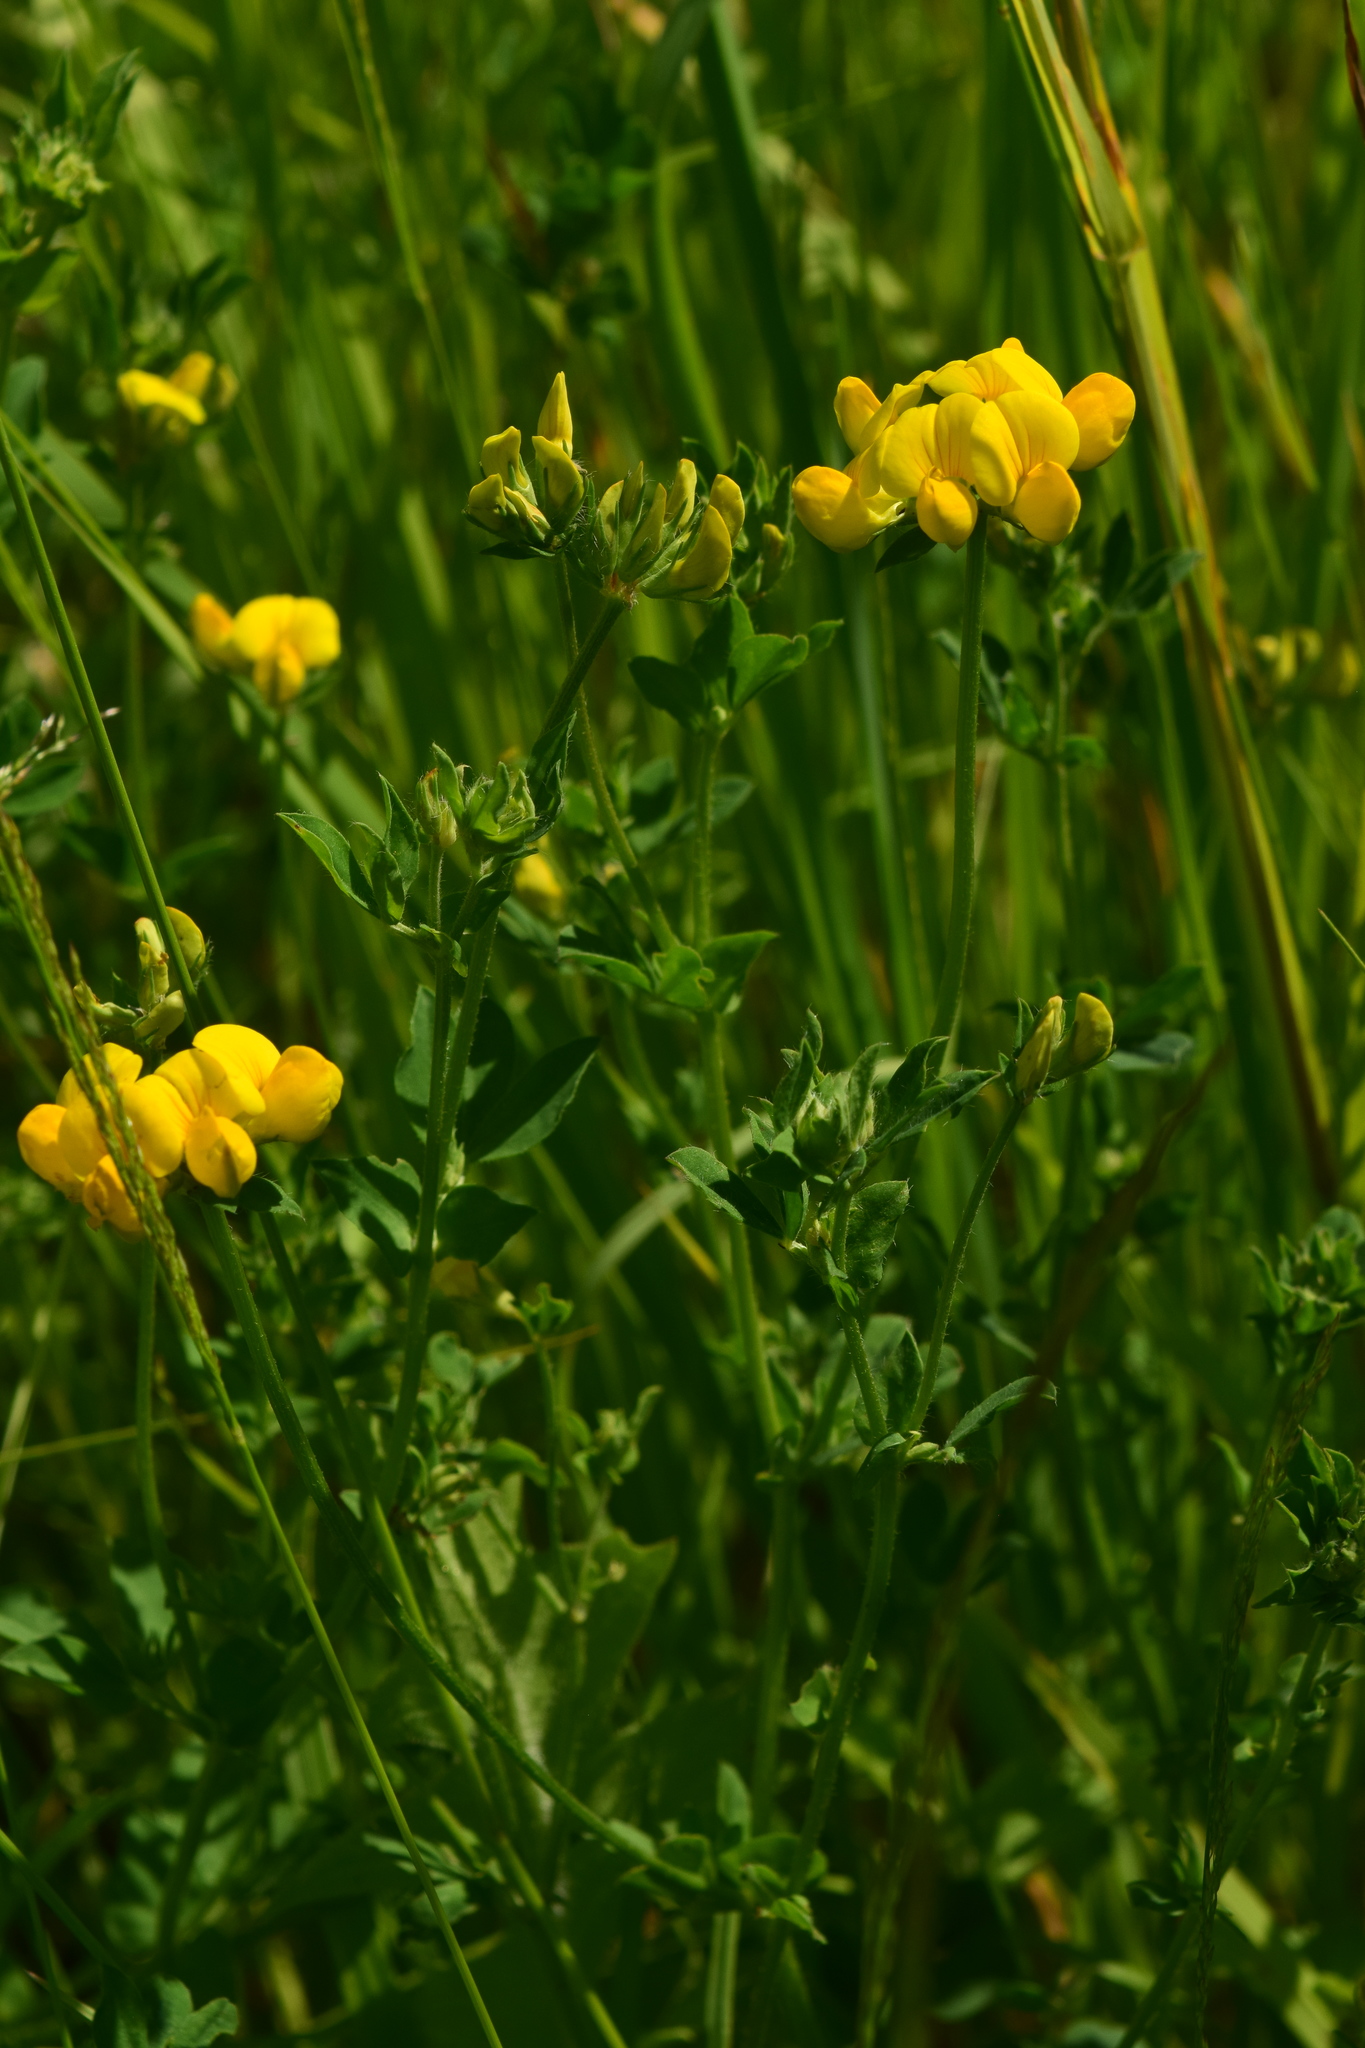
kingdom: Plantae
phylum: Tracheophyta
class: Magnoliopsida
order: Fabales
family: Fabaceae
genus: Lotus
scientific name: Lotus corniculatus
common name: Common bird's-foot-trefoil
